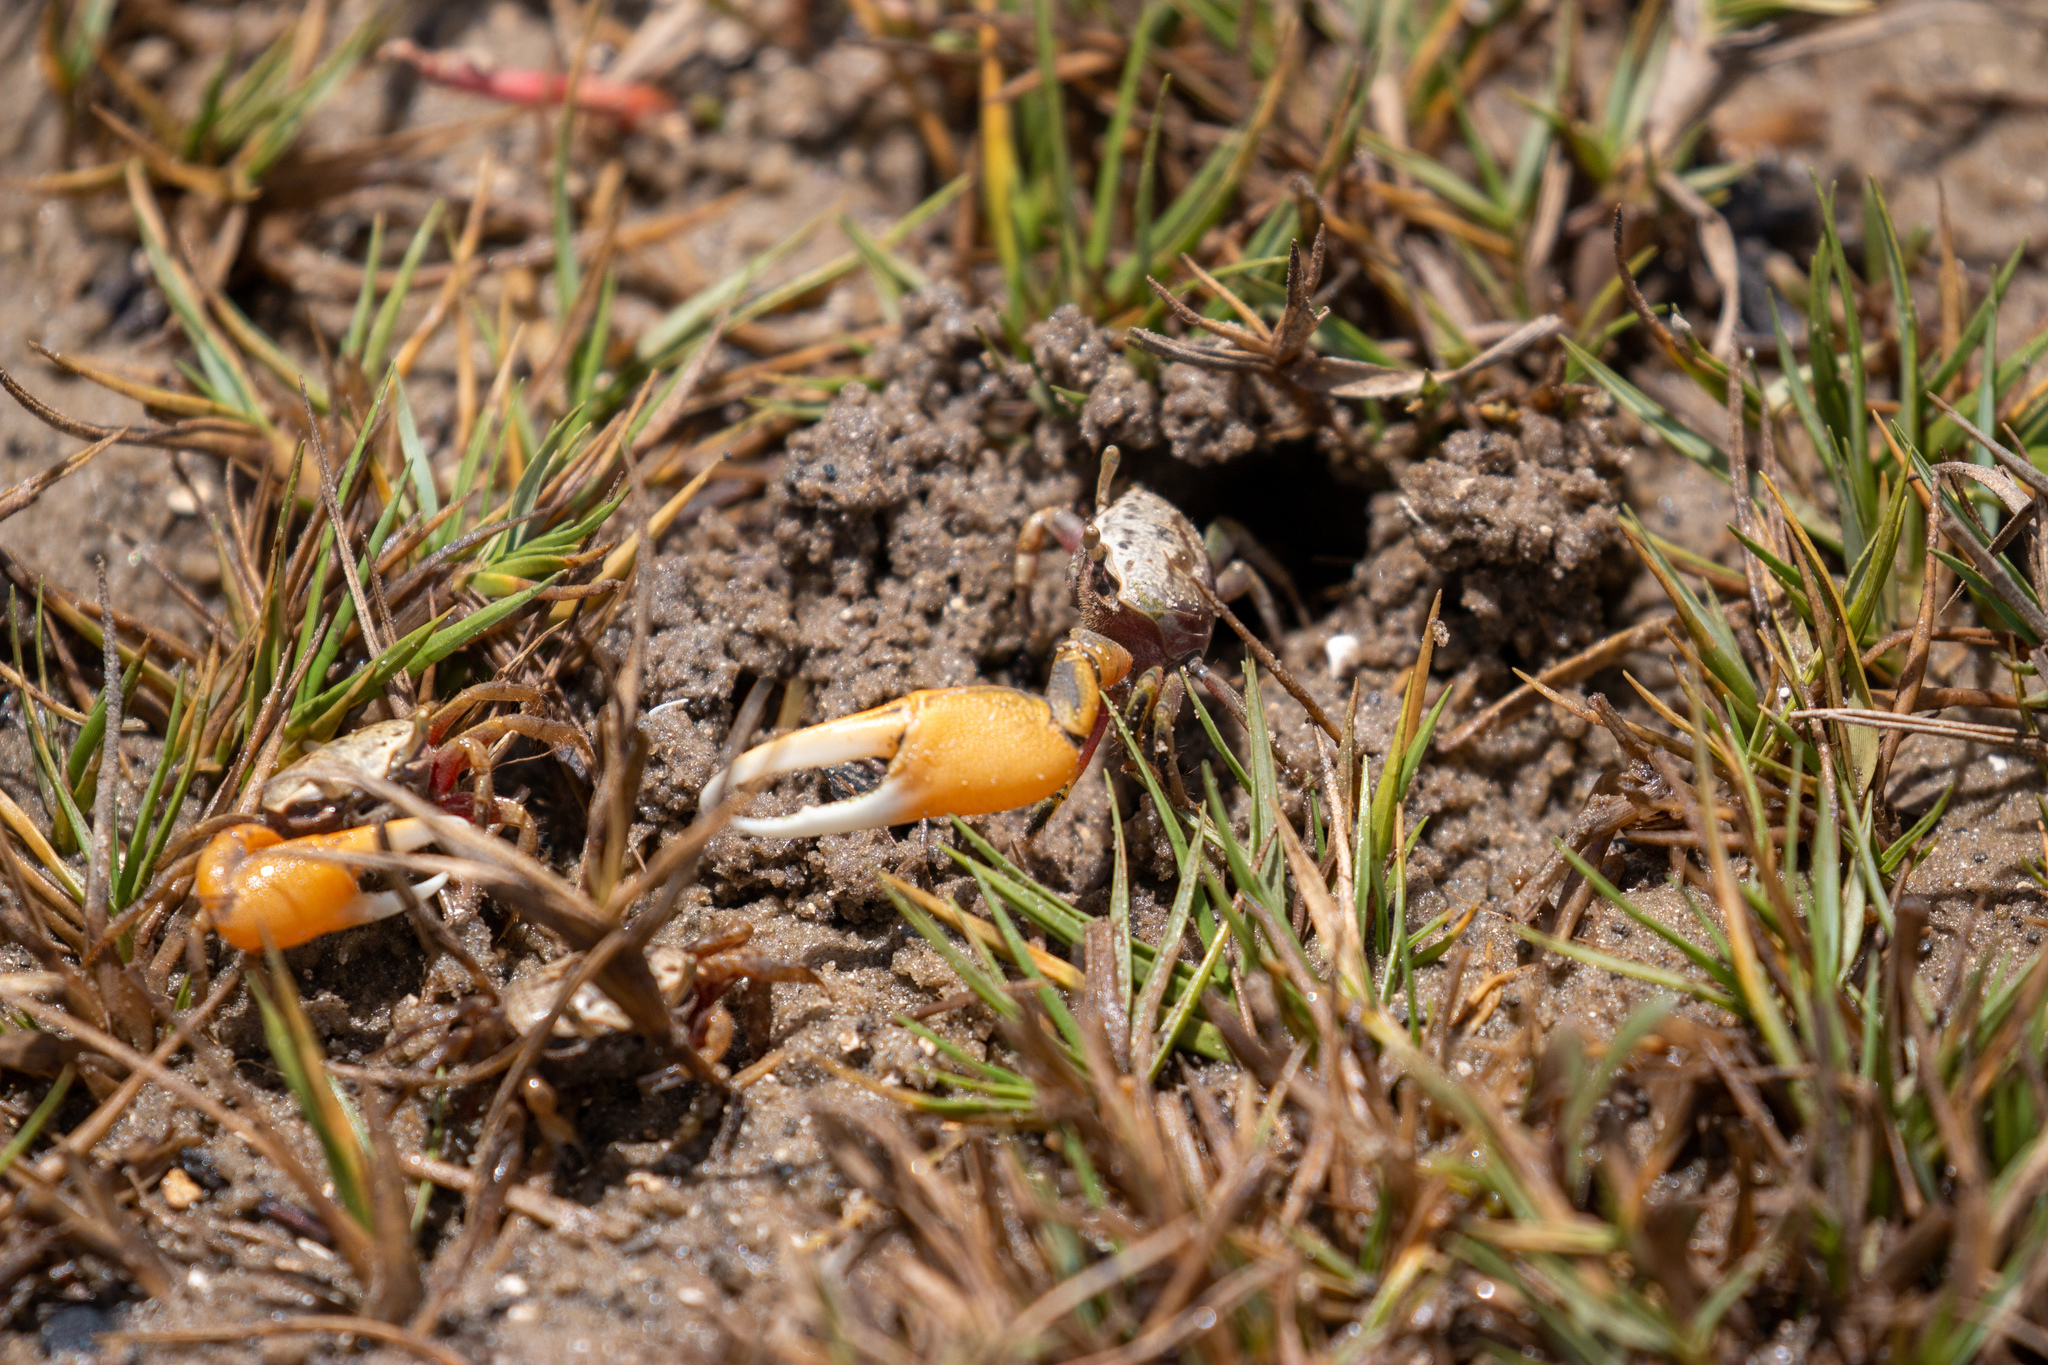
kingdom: Animalia
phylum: Arthropoda
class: Malacostraca
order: Decapoda
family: Ocypodidae
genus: Minuca
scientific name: Minuca
